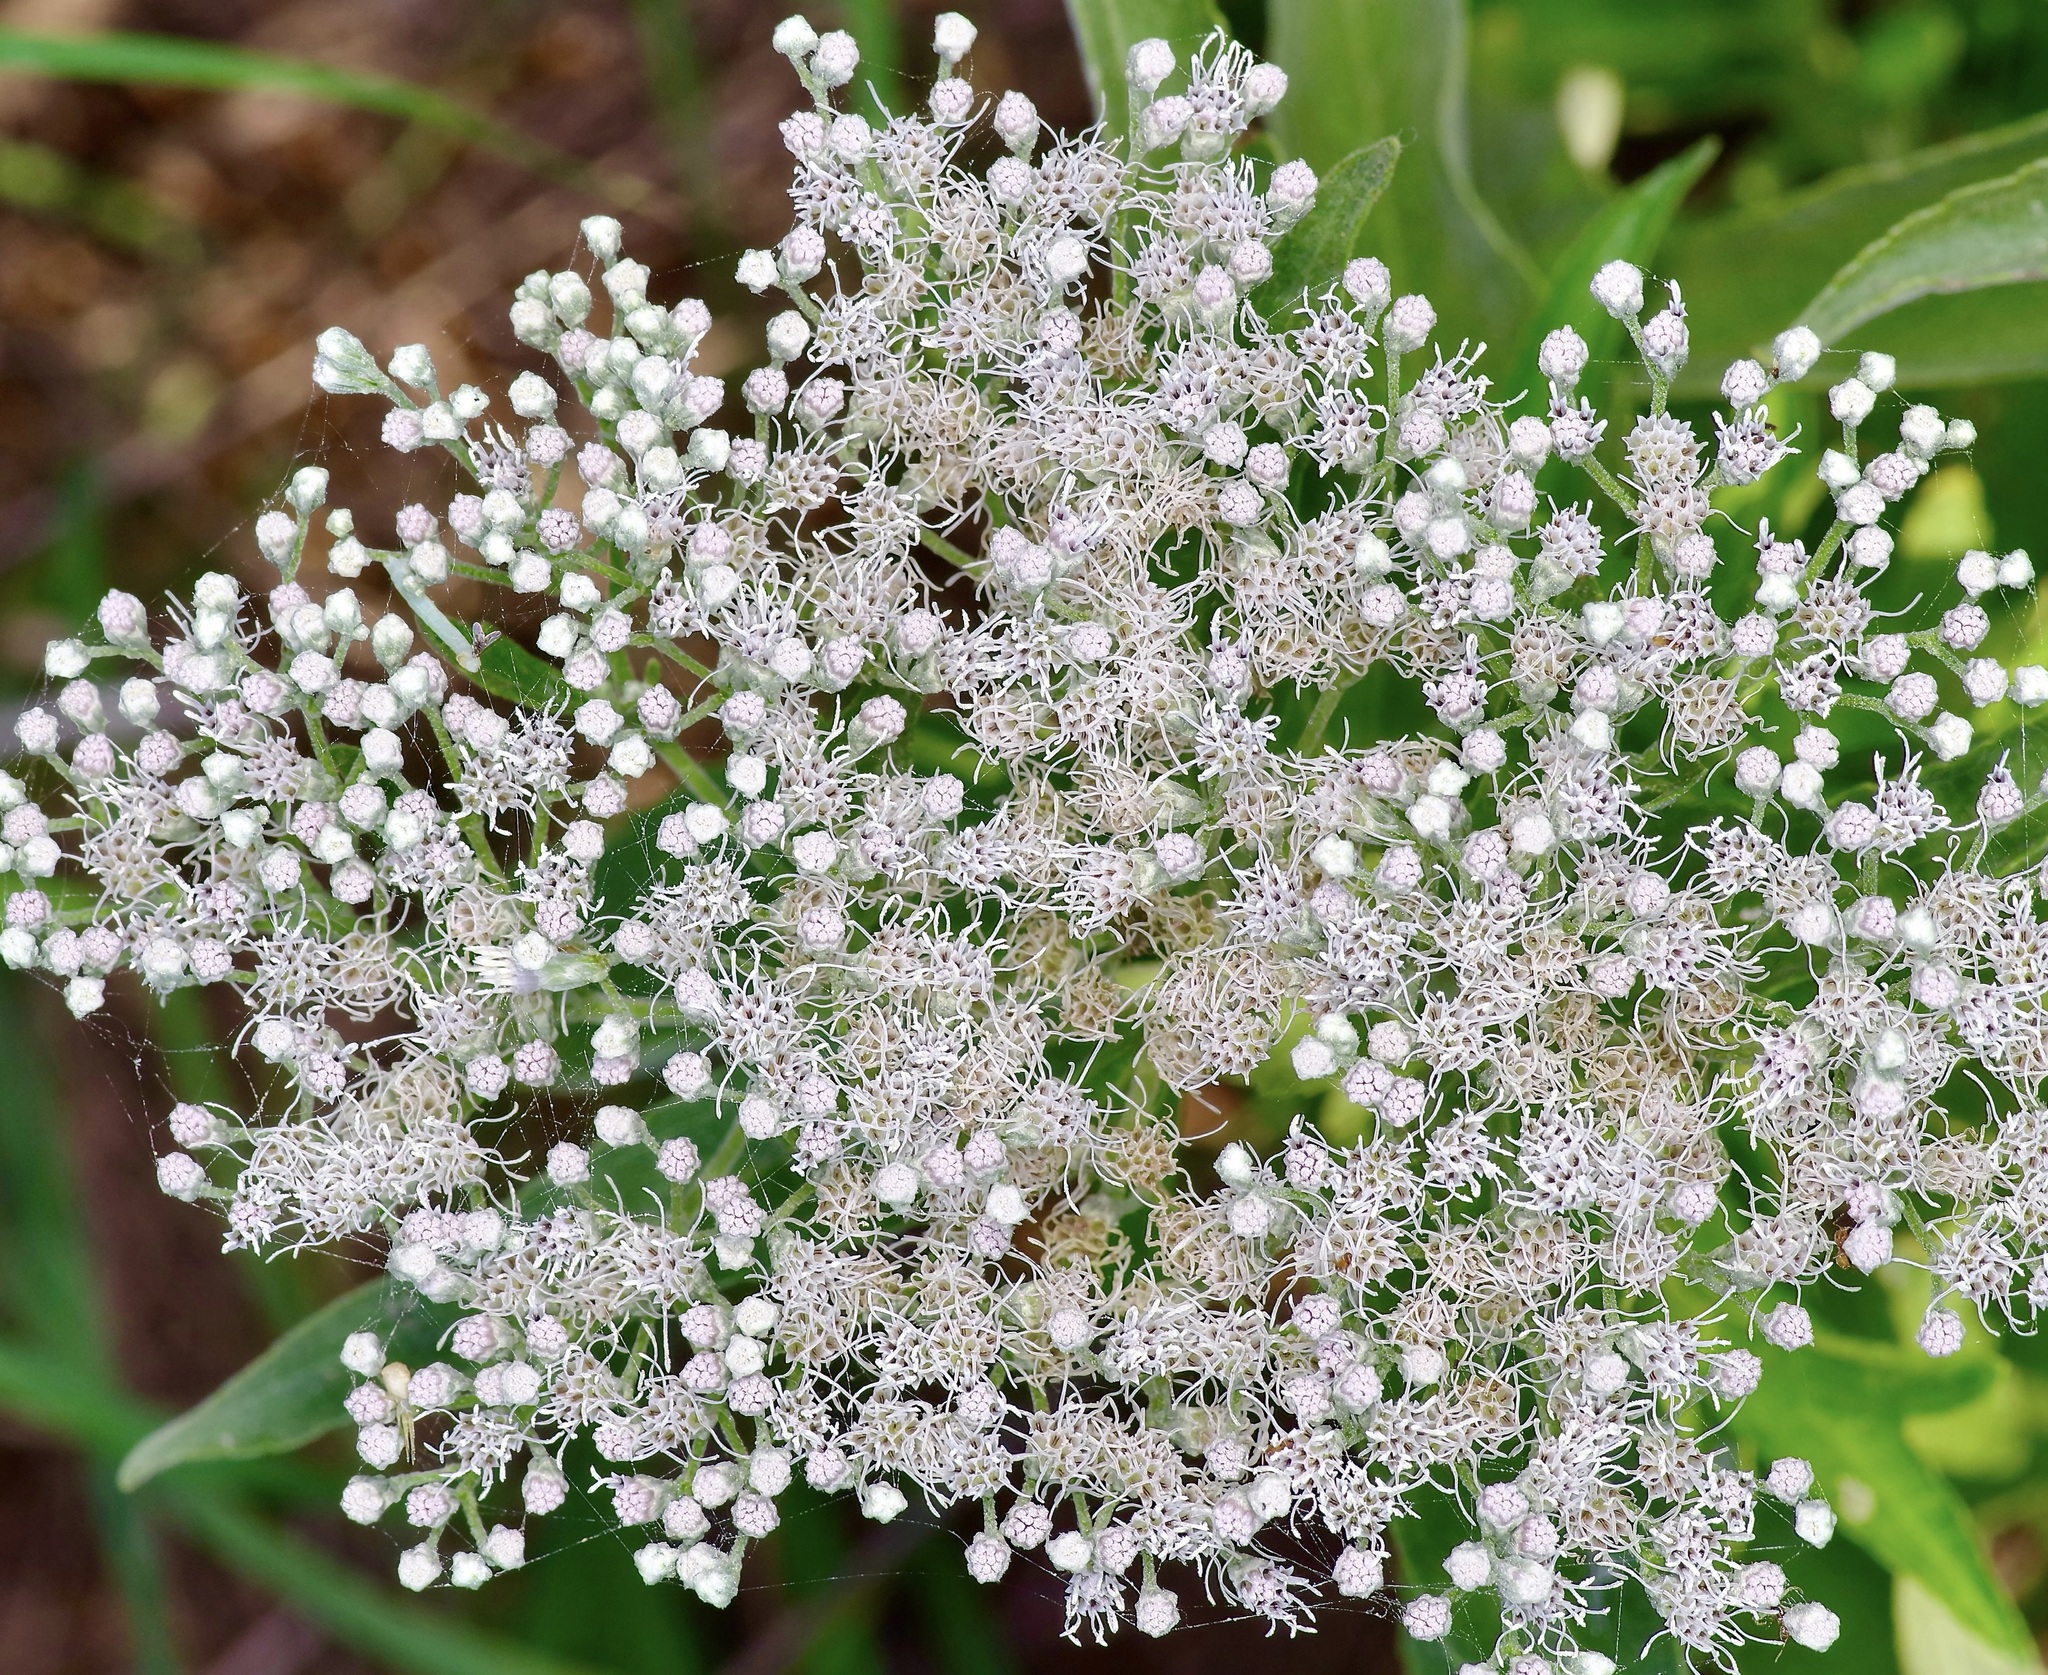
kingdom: Plantae
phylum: Tracheophyta
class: Magnoliopsida
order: Asterales
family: Asteraceae
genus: Eupatorium
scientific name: Eupatorium serotinum
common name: Late boneset
